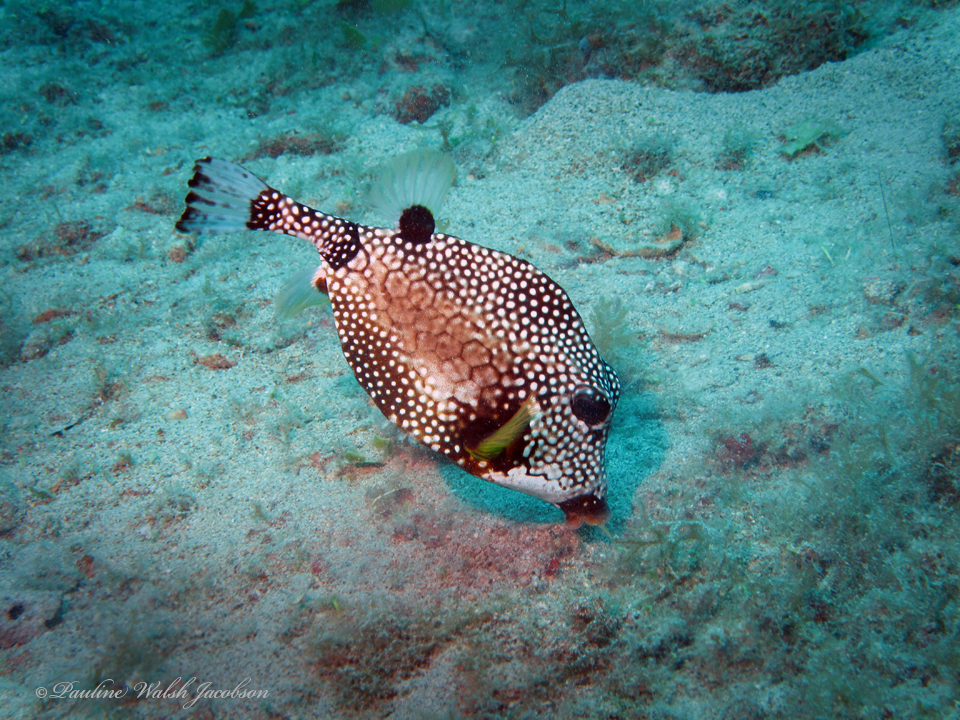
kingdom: Animalia
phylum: Chordata
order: Tetraodontiformes
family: Ostraciidae
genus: Lactophrys
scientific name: Lactophrys triqueter
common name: Smooth trunkfish
